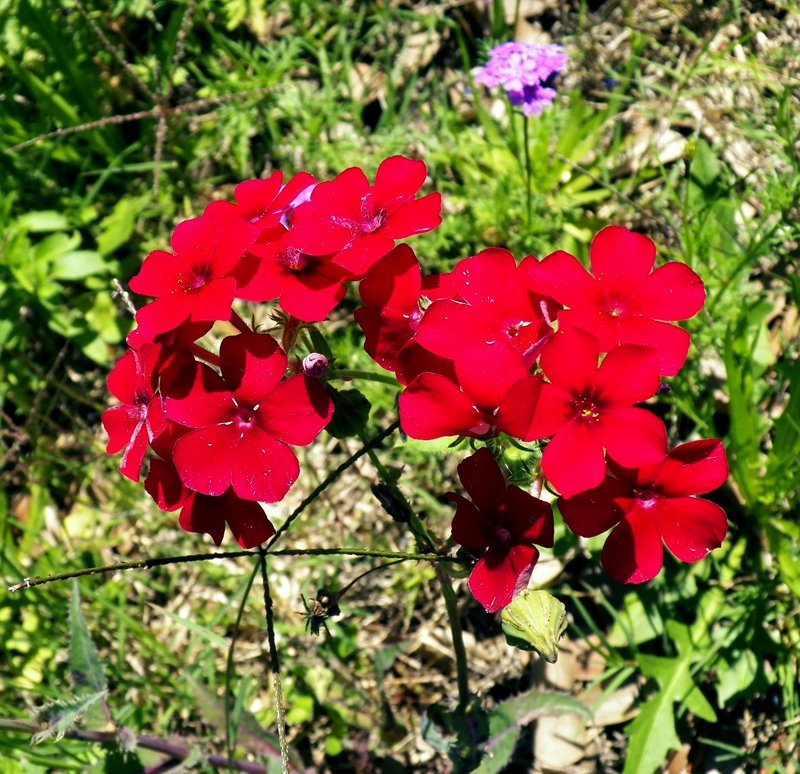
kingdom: Plantae
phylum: Tracheophyta
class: Magnoliopsida
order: Ericales
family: Polemoniaceae
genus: Phlox
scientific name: Phlox drummondii
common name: Drummond's phlox
